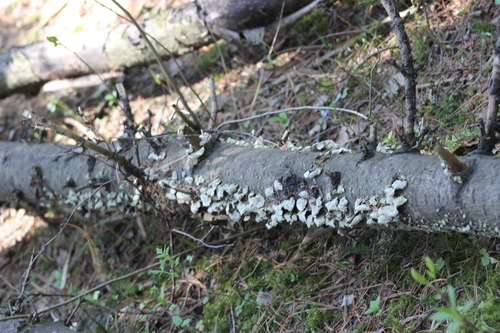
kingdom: Fungi
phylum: Basidiomycota
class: Agaricomycetes
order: Hymenochaetales
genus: Trichaptum
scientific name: Trichaptum fuscoviolaceum
